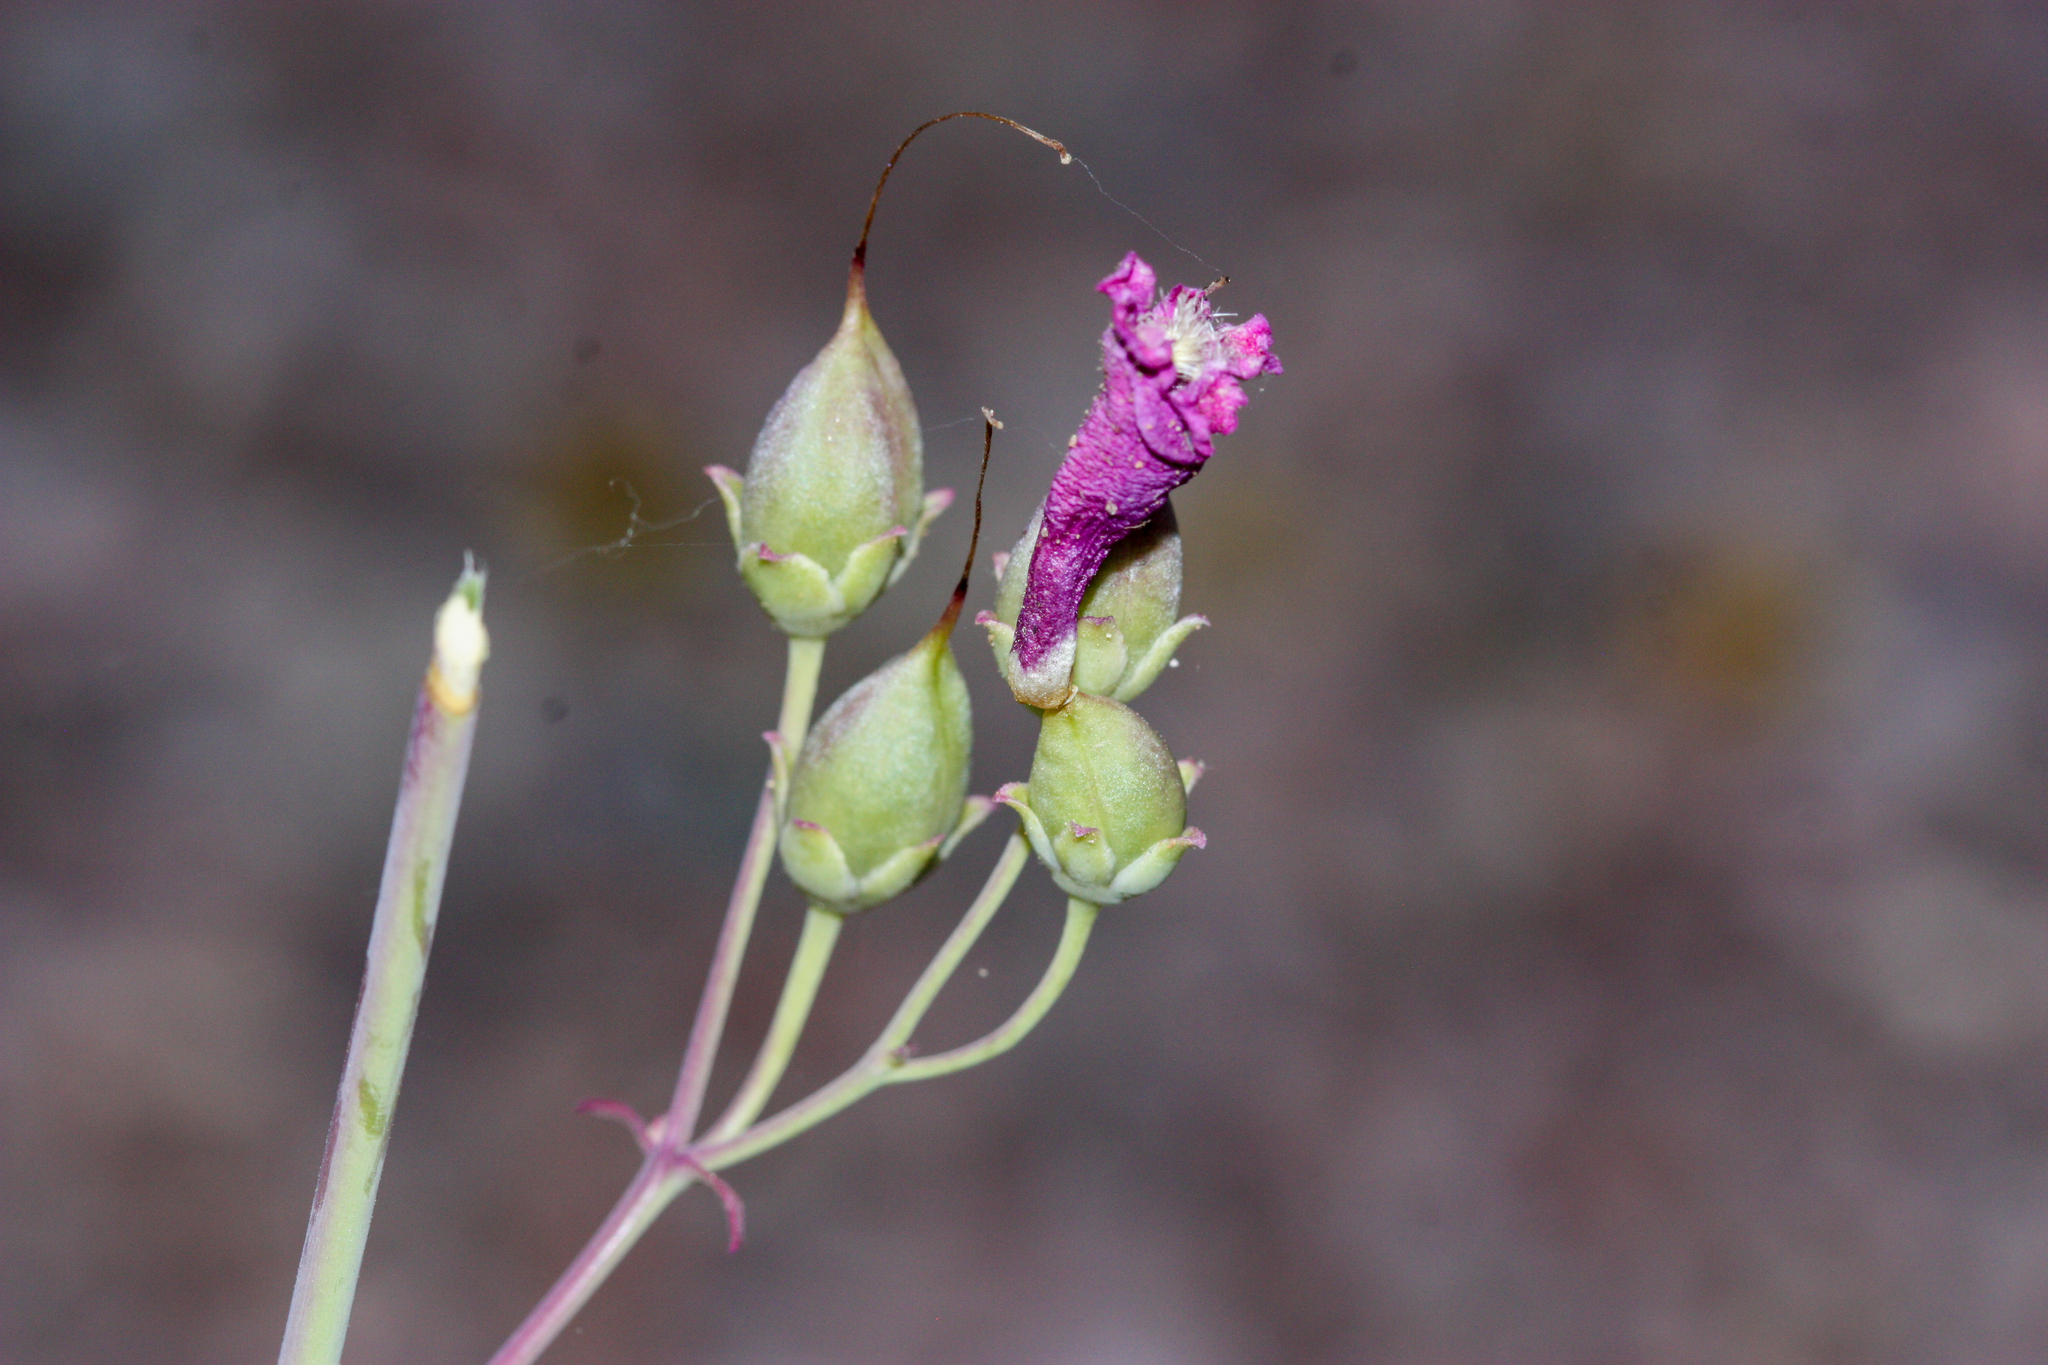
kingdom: Plantae
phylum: Tracheophyta
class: Magnoliopsida
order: Lamiales
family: Plantaginaceae
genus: Penstemon
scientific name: Penstemon parryi
